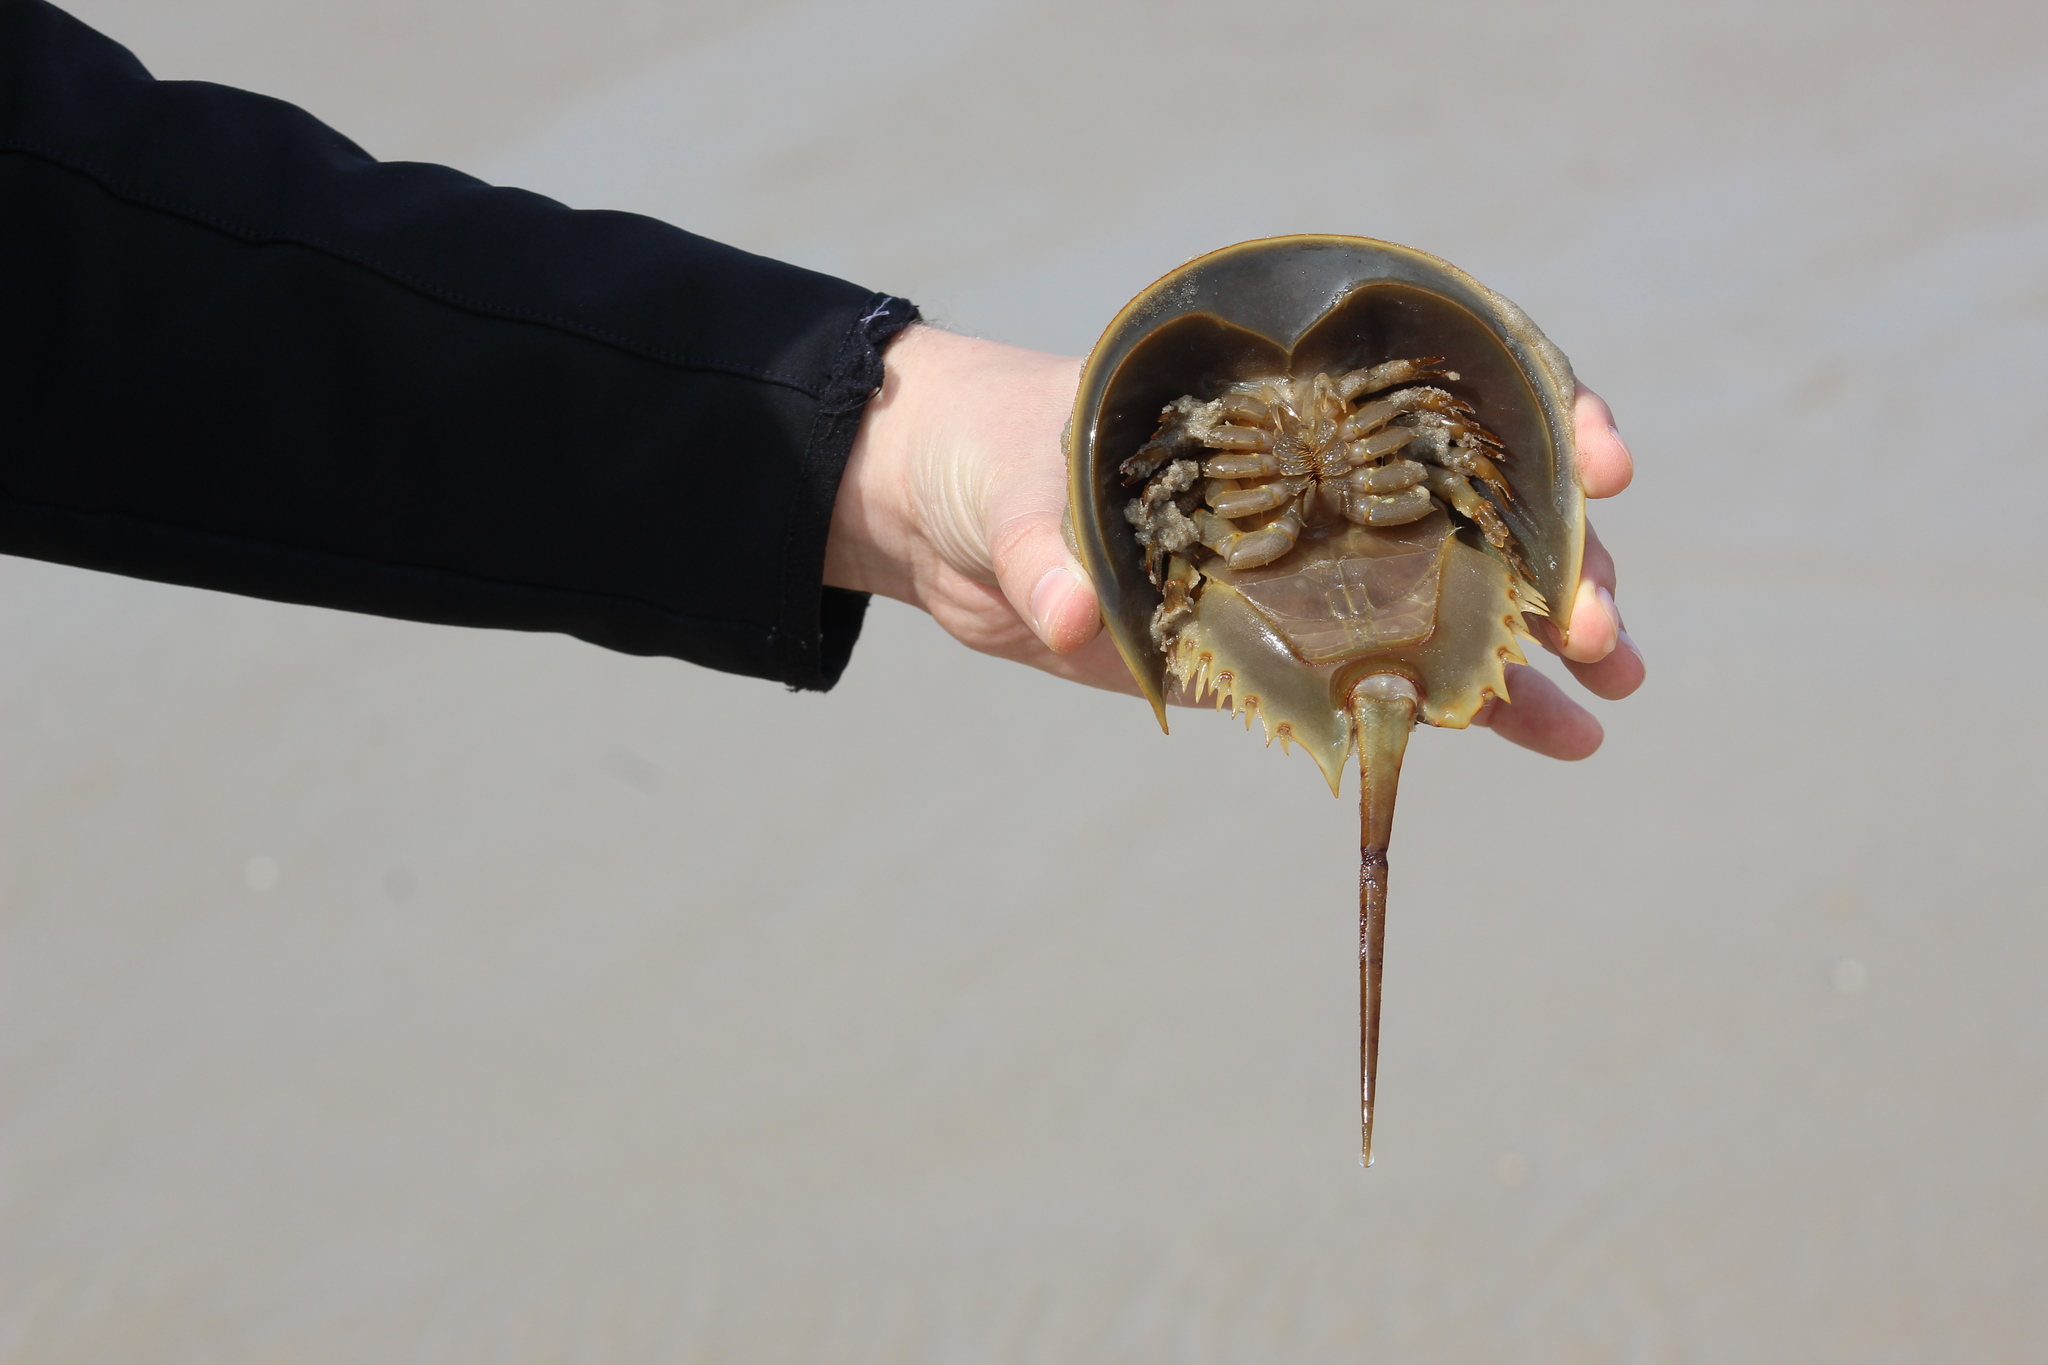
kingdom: Animalia
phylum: Arthropoda
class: Merostomata
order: Xiphosurida
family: Limulidae
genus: Limulus
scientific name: Limulus polyphemus
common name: Horseshoe crab
